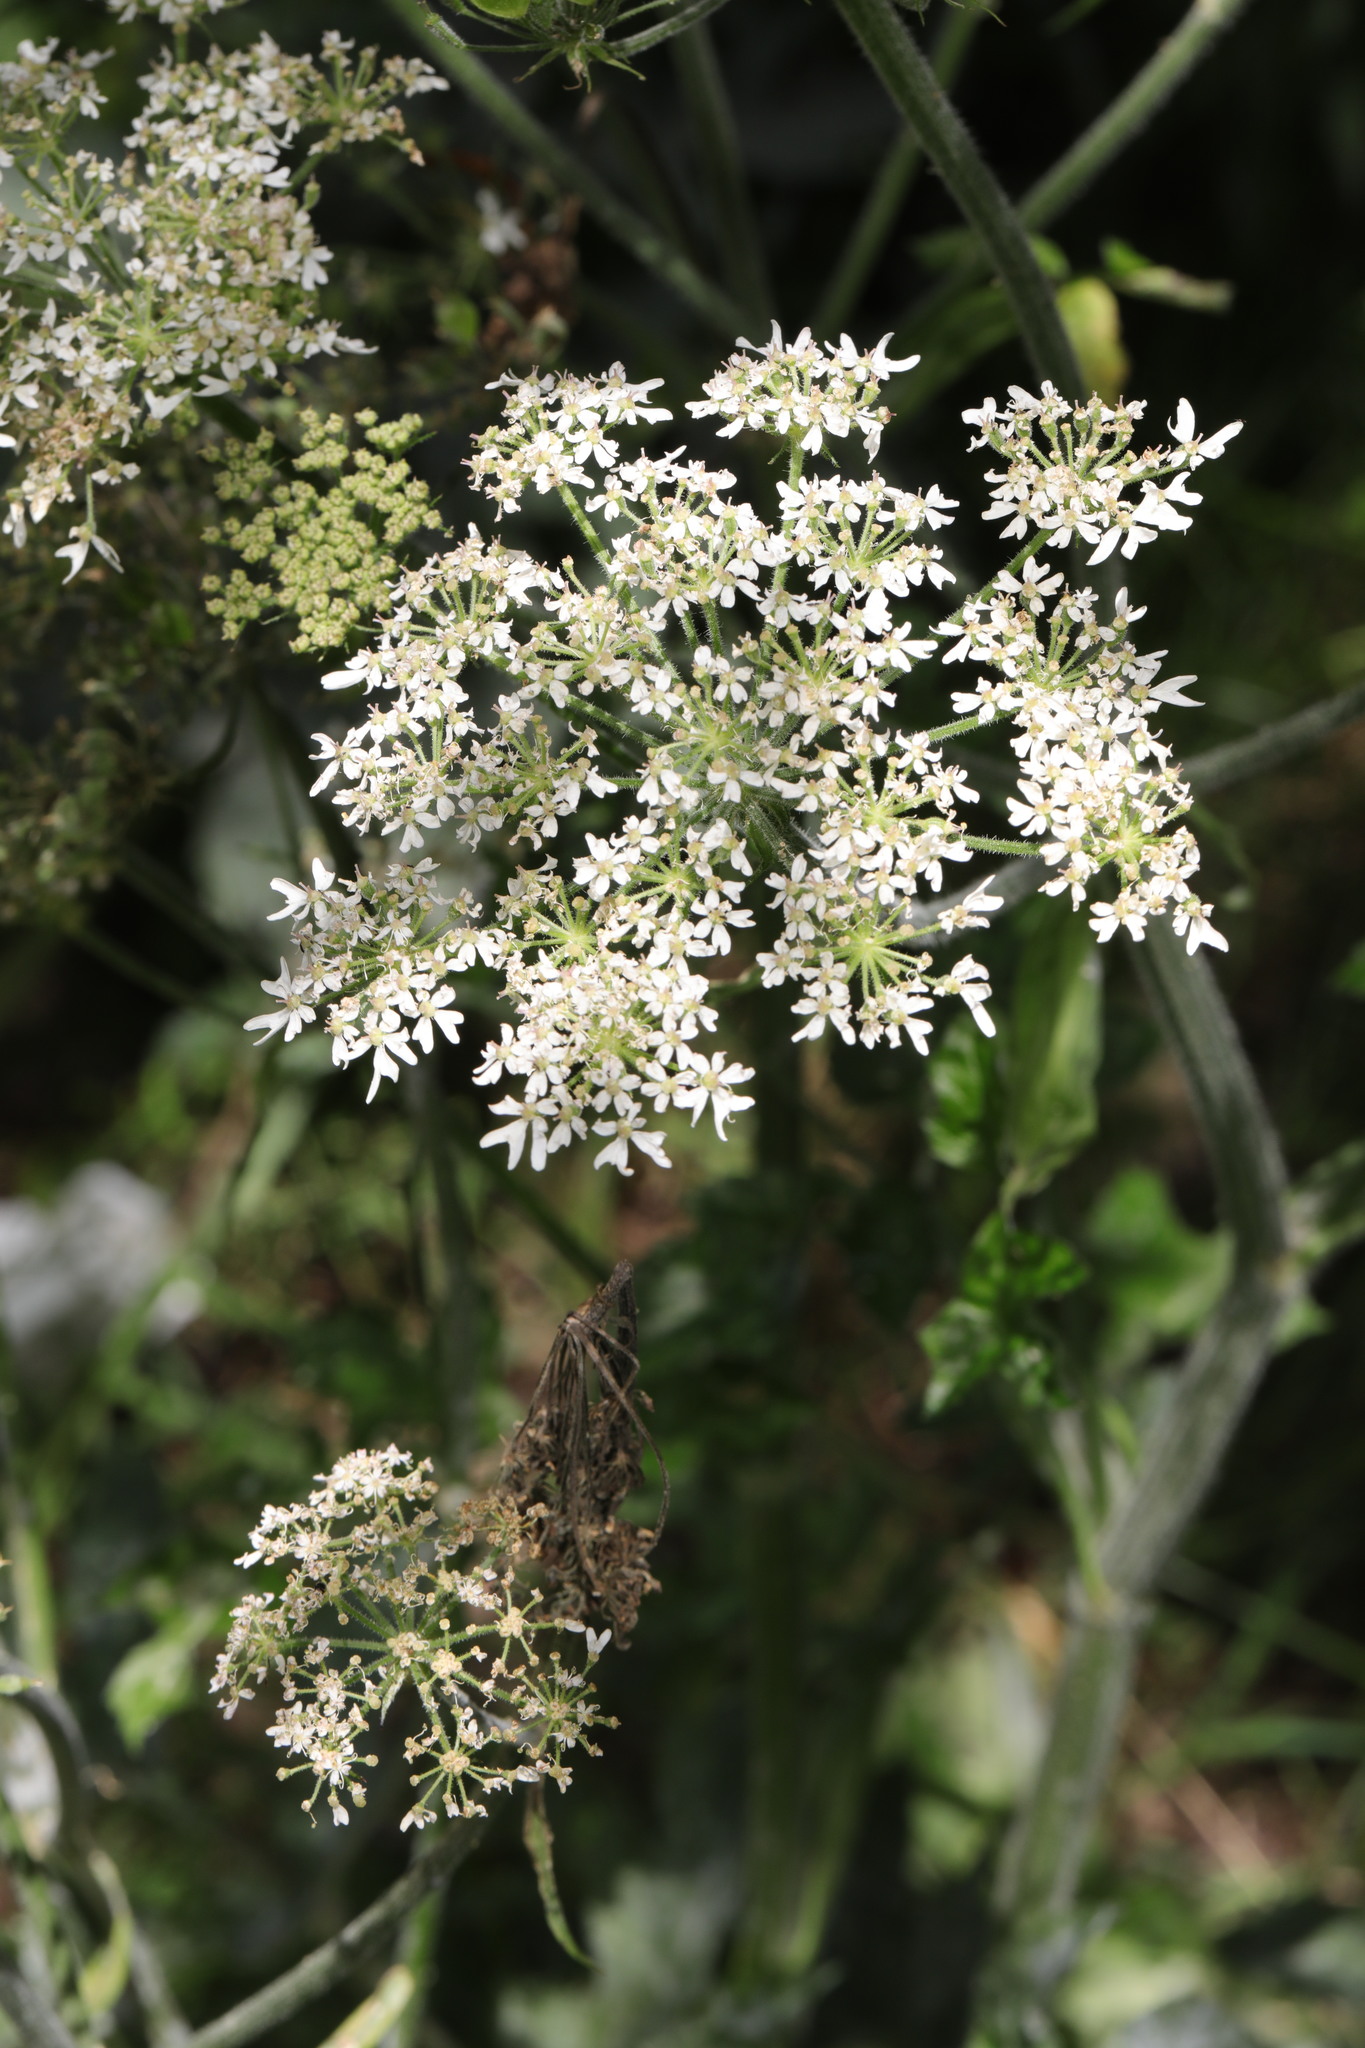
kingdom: Plantae
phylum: Tracheophyta
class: Magnoliopsida
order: Apiales
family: Apiaceae
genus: Heracleum
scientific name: Heracleum sphondylium
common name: Hogweed
